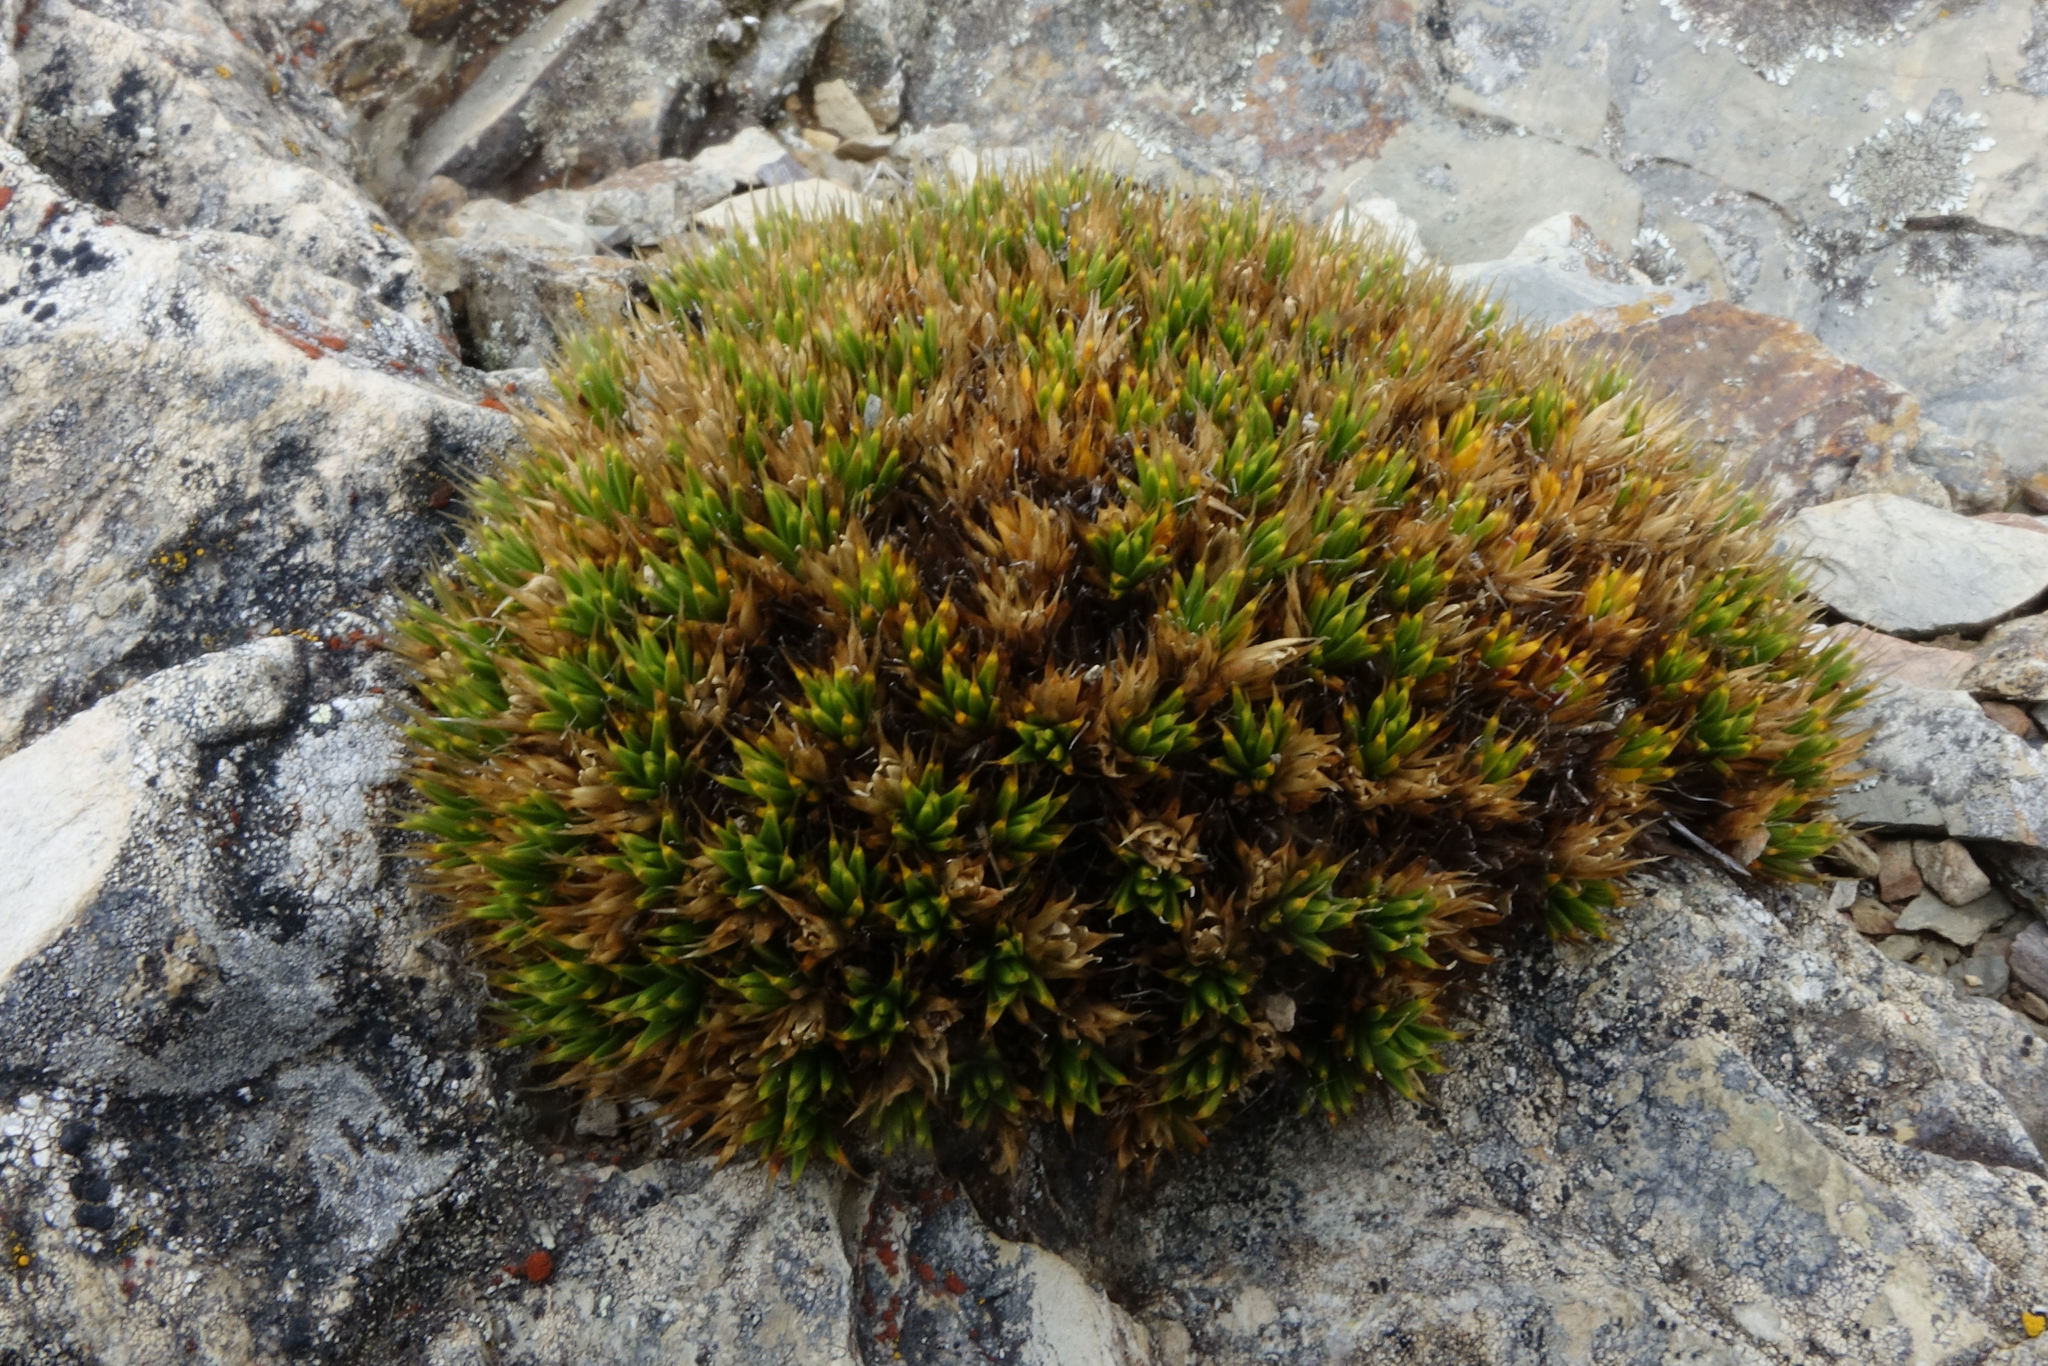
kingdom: Plantae
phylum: Tracheophyta
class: Magnoliopsida
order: Caryophyllales
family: Caryophyllaceae
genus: Colobanthus
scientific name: Colobanthus buchananii
